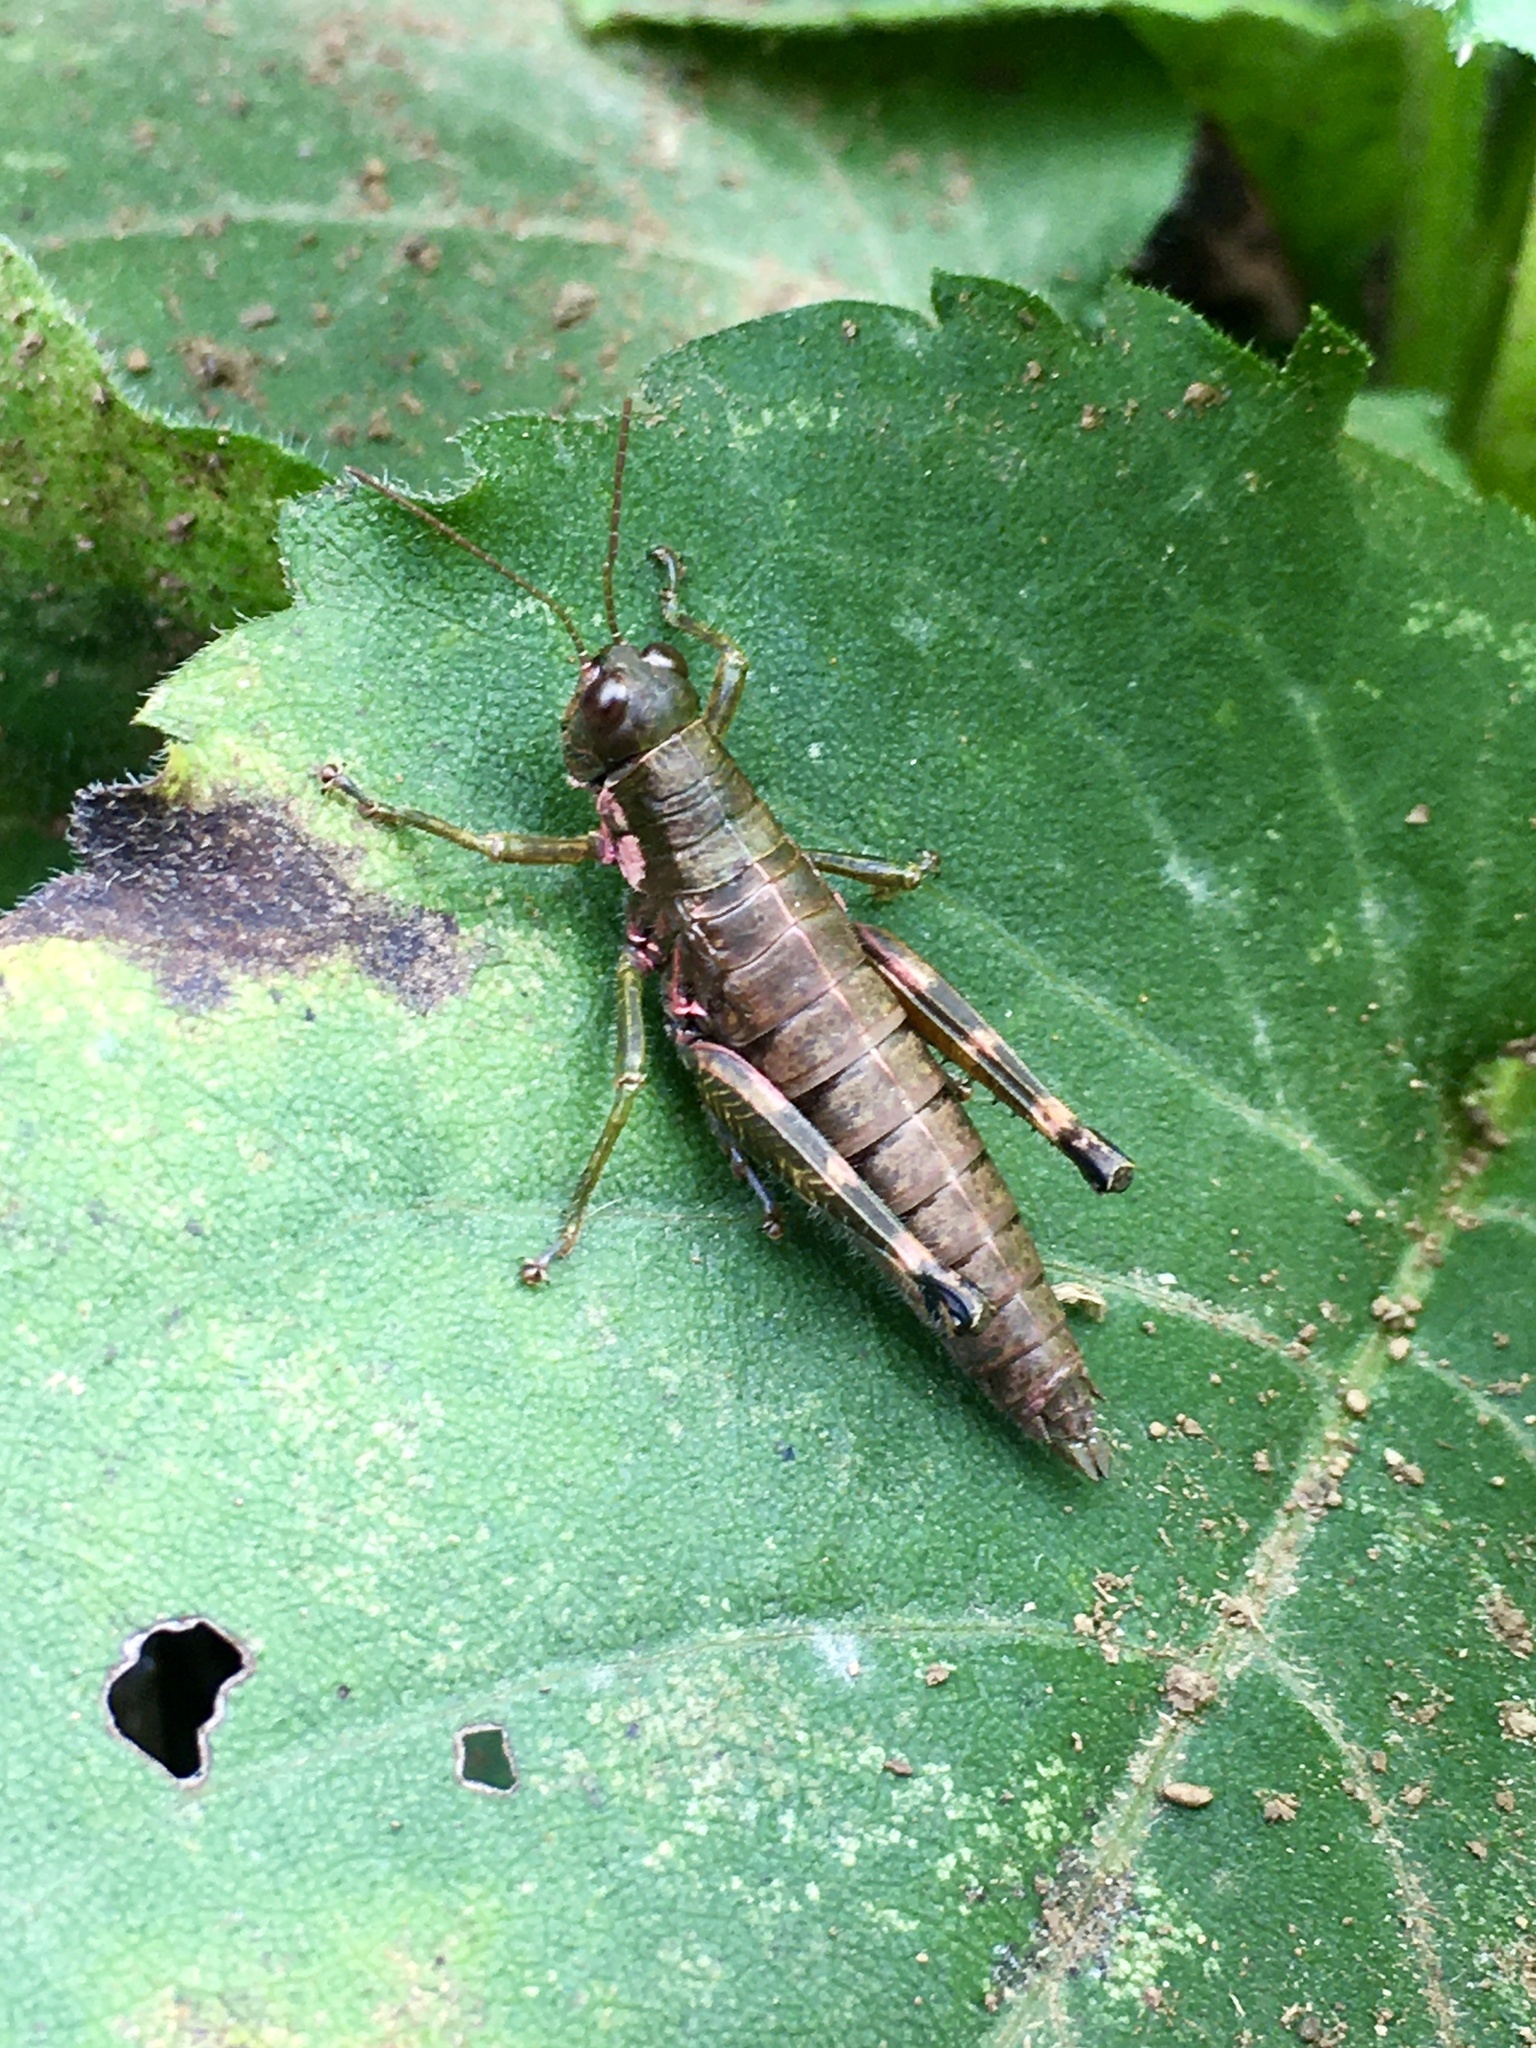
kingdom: Animalia
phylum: Arthropoda
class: Insecta
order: Orthoptera
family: Acrididae
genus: Booneacris
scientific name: Booneacris glacialis
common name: Wingless mountain grasshopper
